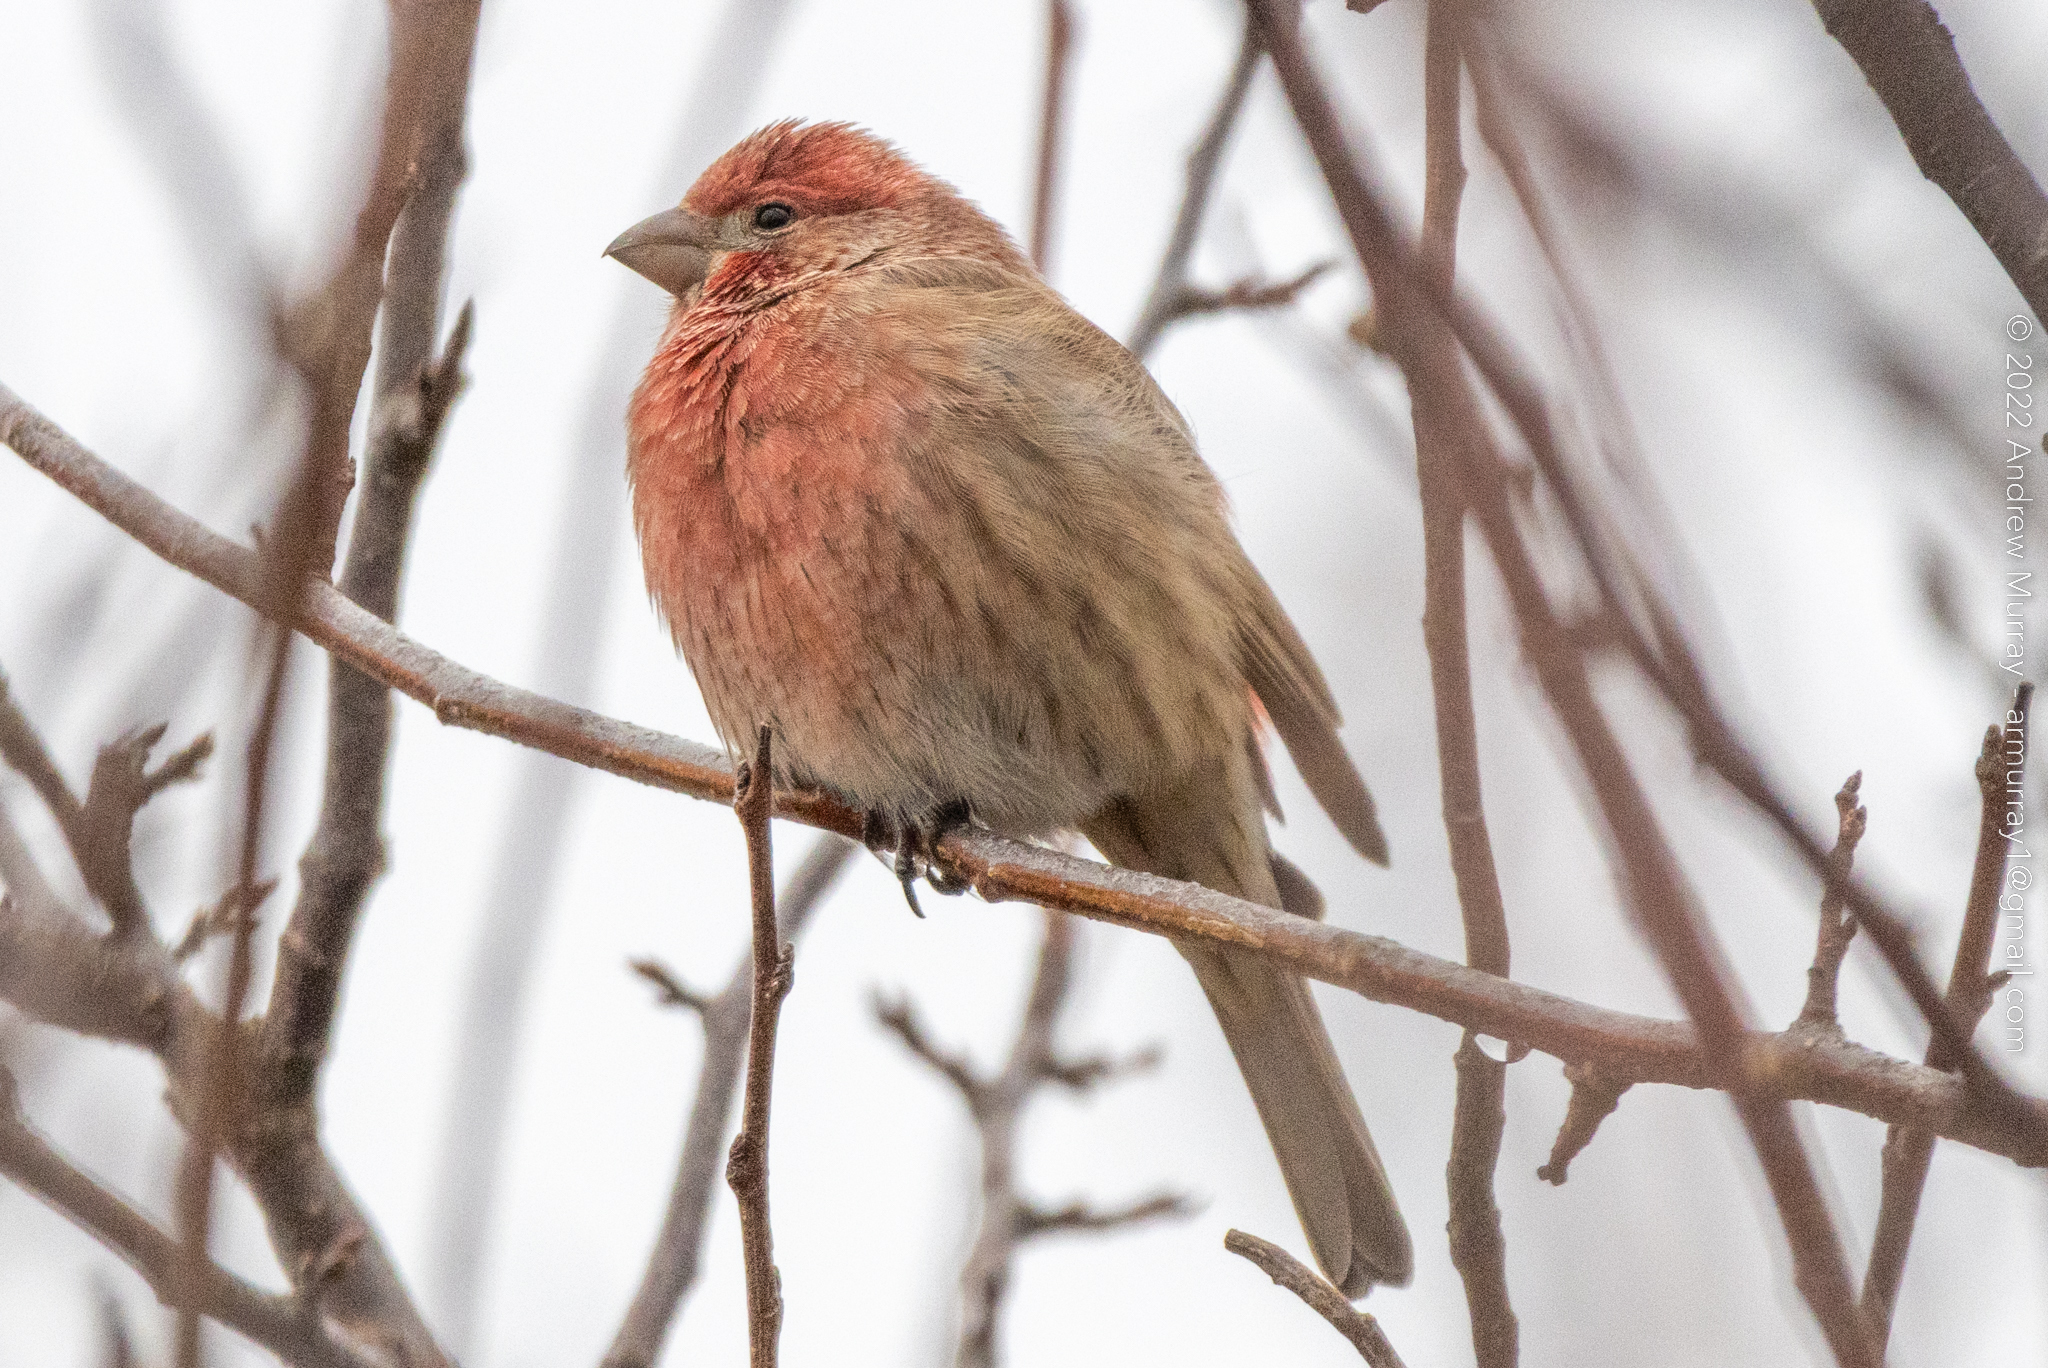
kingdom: Animalia
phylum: Chordata
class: Aves
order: Passeriformes
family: Fringillidae
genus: Haemorhous
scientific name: Haemorhous mexicanus
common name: House finch
